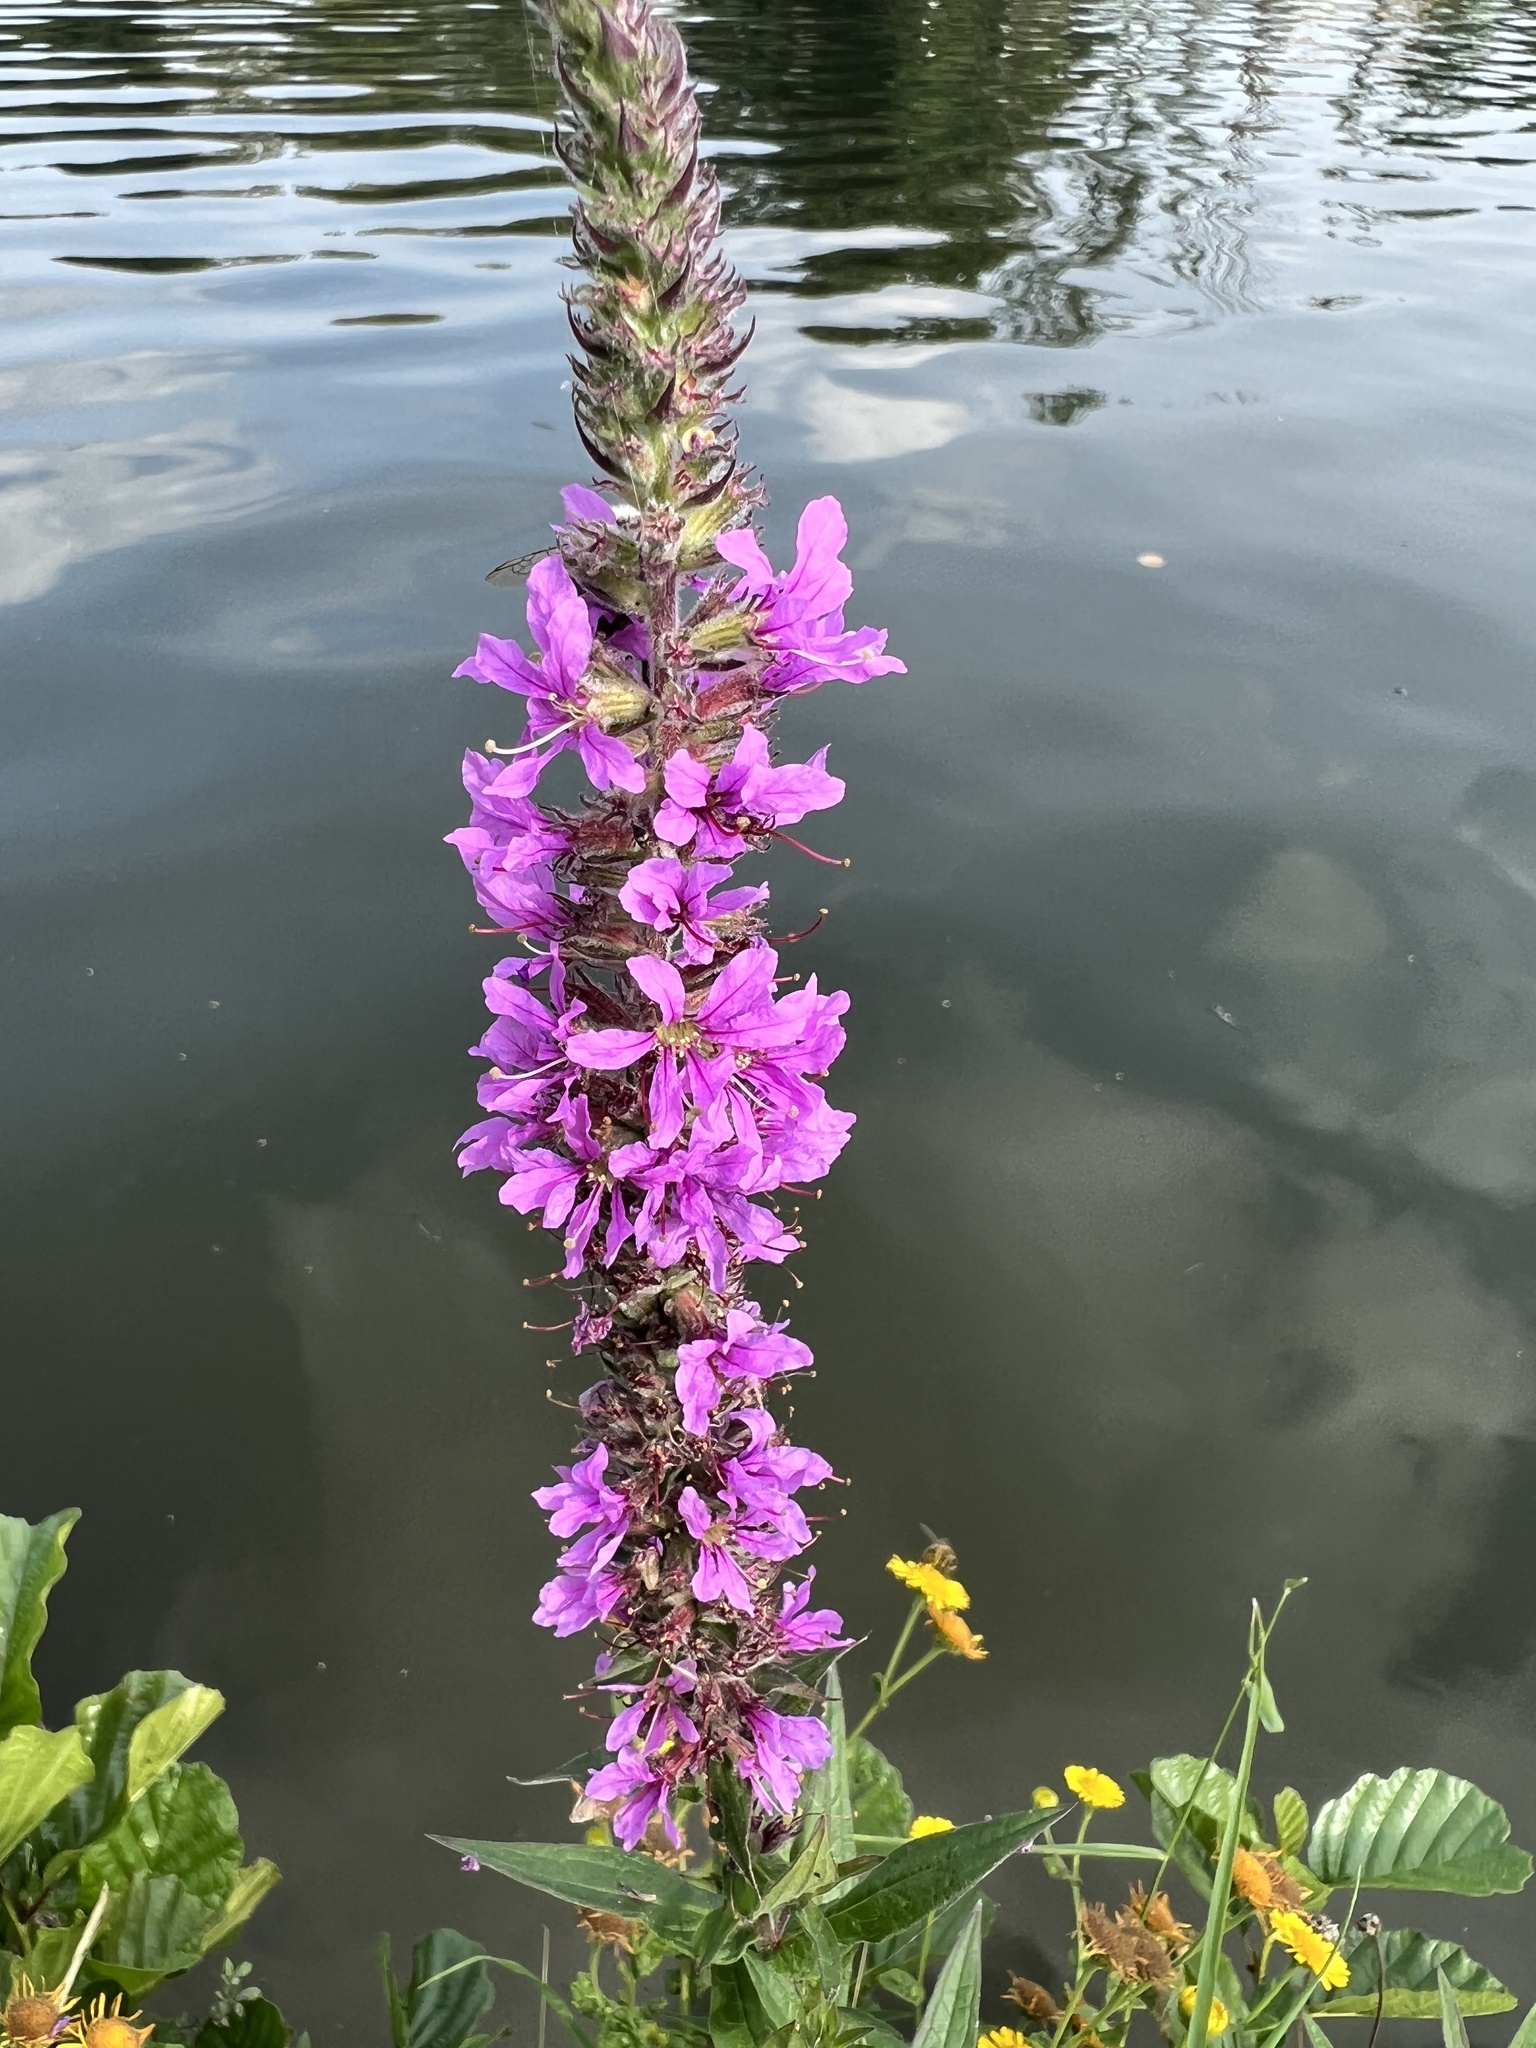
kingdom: Plantae
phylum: Tracheophyta
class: Magnoliopsida
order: Myrtales
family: Lythraceae
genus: Lythrum
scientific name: Lythrum salicaria
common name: Purple loosestrife
